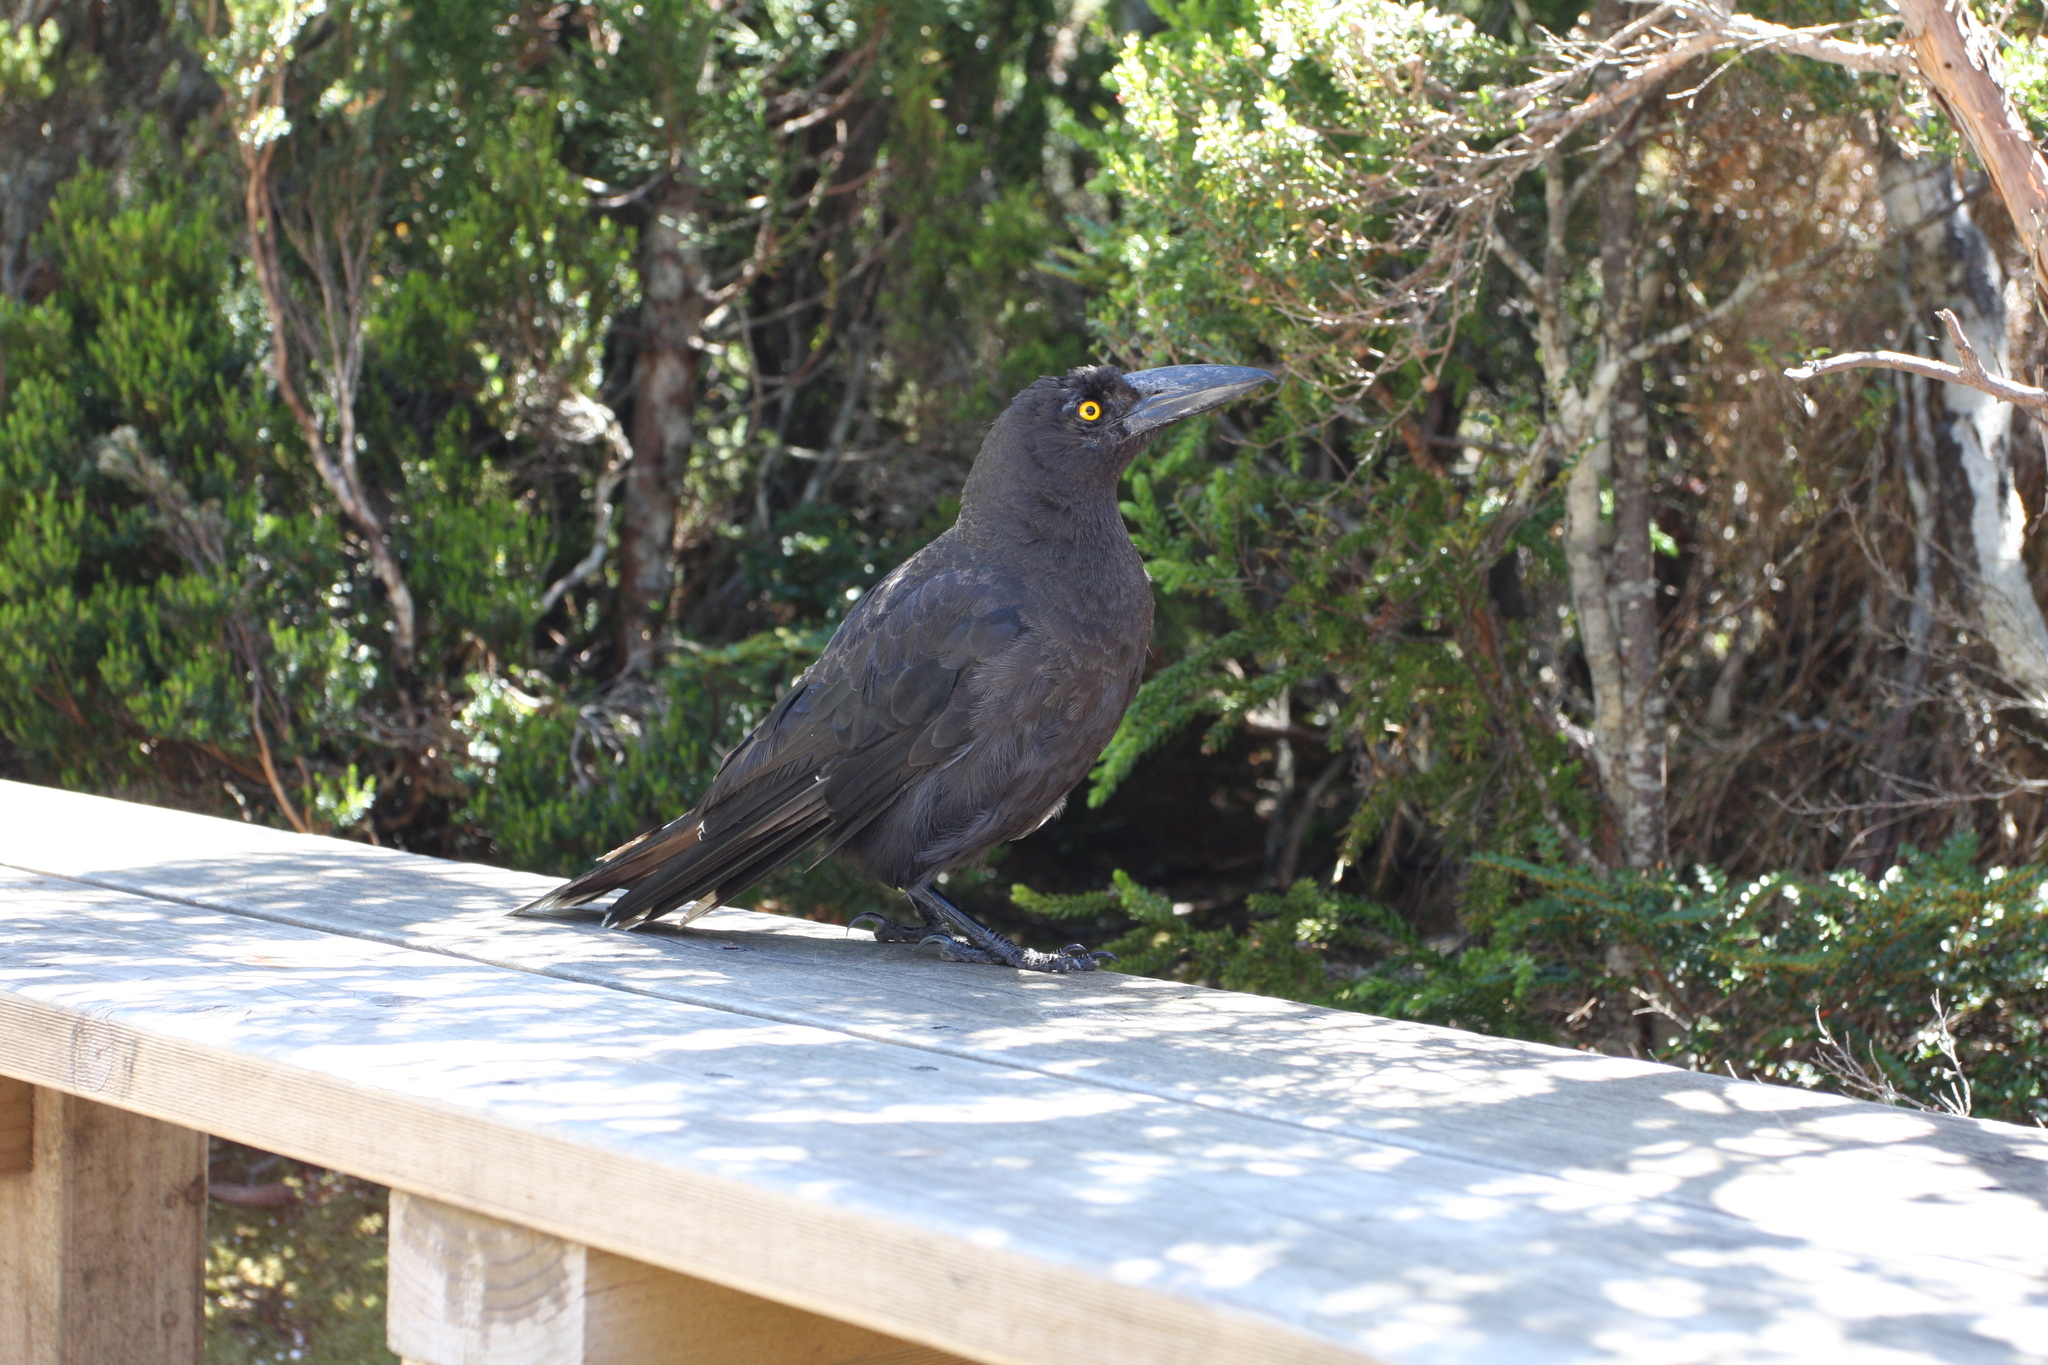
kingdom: Animalia
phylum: Chordata
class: Aves
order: Passeriformes
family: Cracticidae
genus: Strepera
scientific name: Strepera fuliginosa
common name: Black currawong
